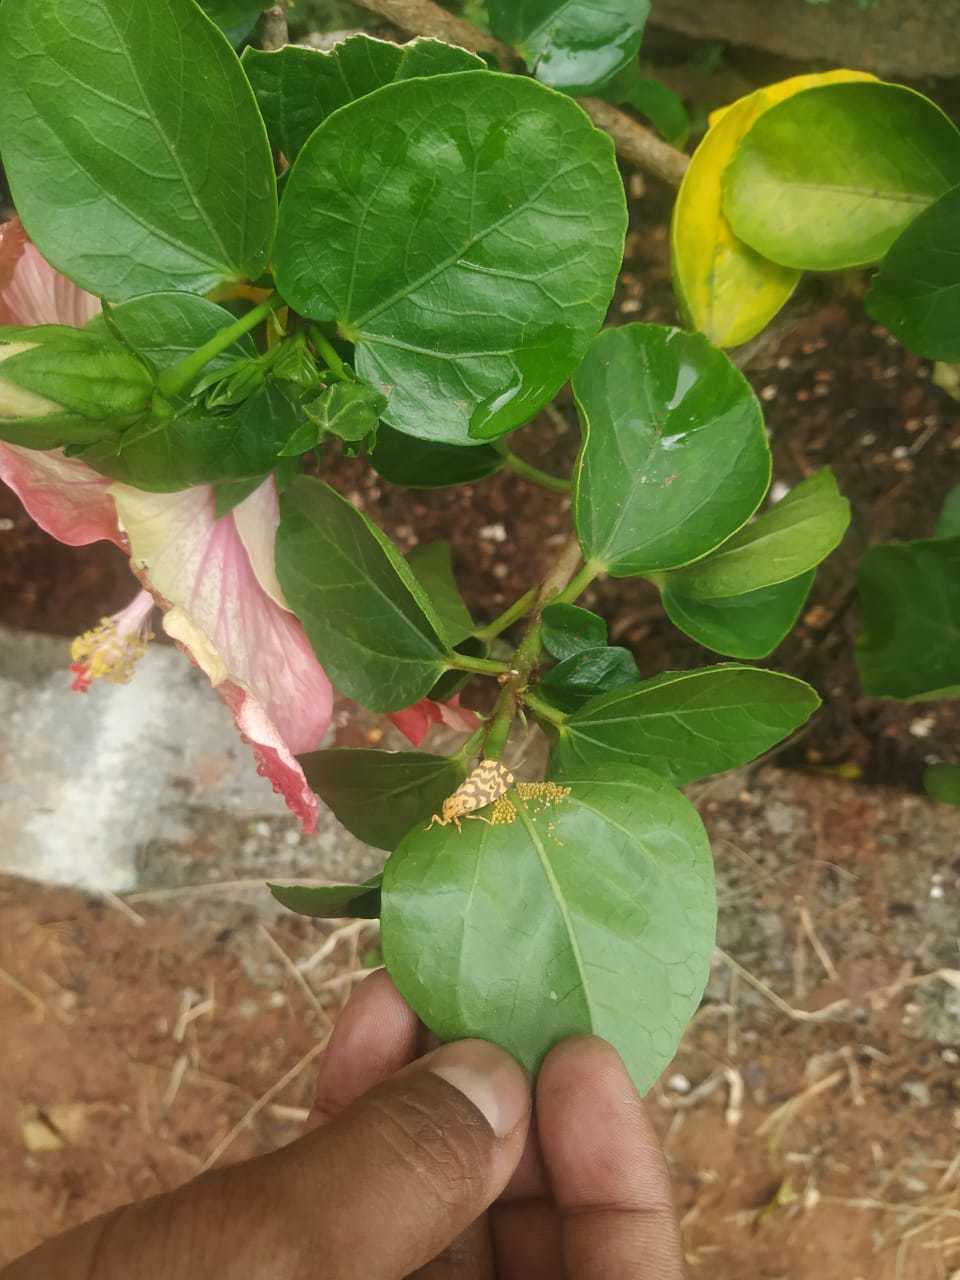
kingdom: Animalia
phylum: Arthropoda
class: Insecta
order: Lepidoptera
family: Erebidae
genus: Nepita
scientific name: Nepita conferta
